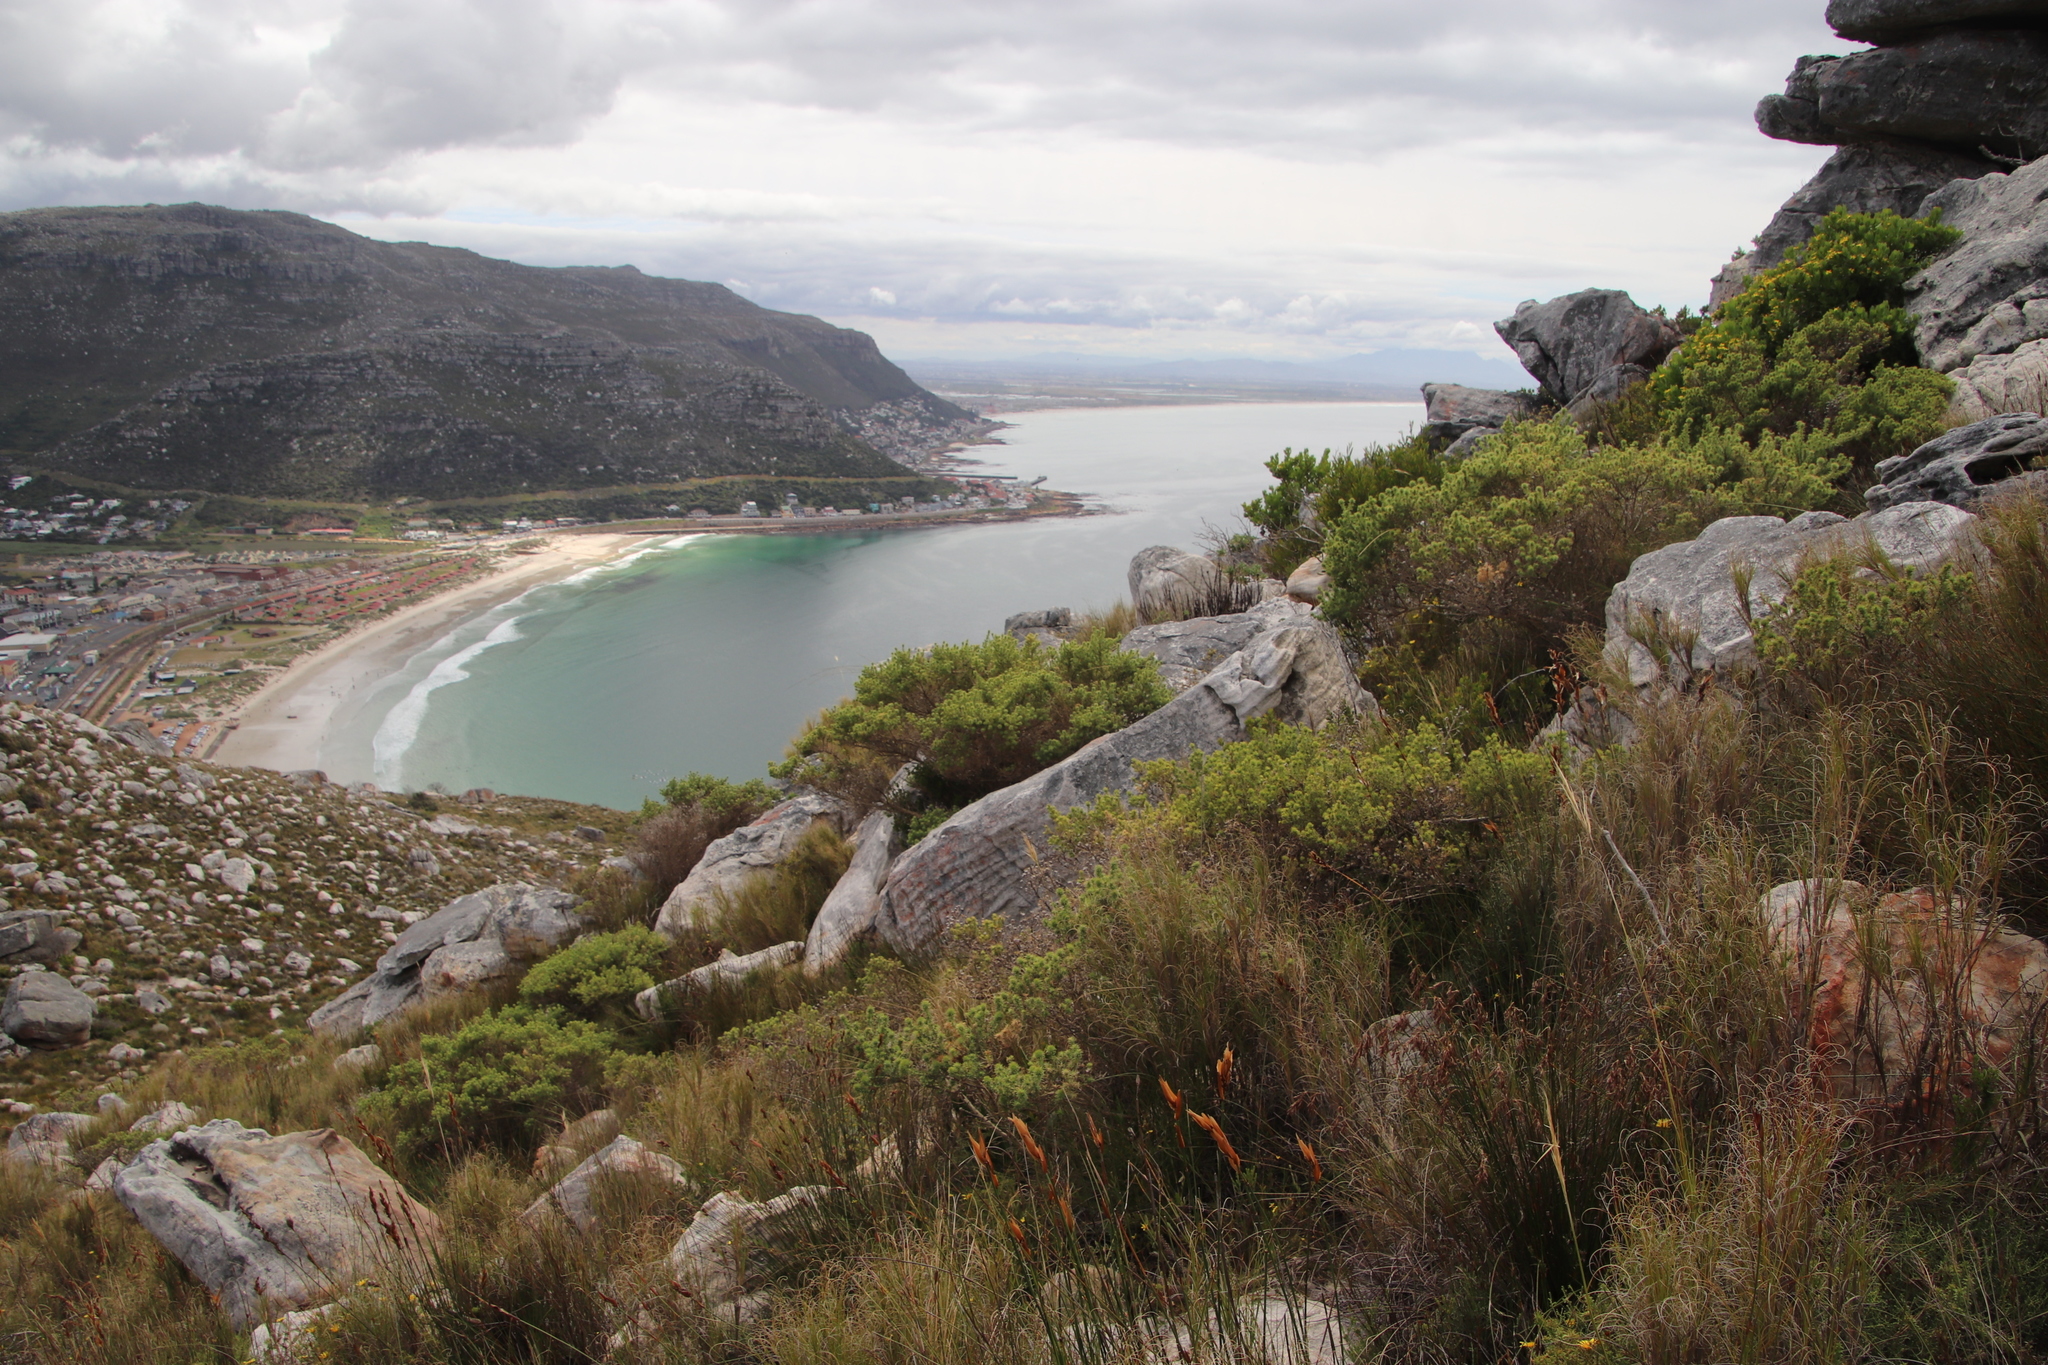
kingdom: Plantae
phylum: Tracheophyta
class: Magnoliopsida
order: Fabales
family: Fabaceae
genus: Aspalathus
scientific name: Aspalathus astroites
